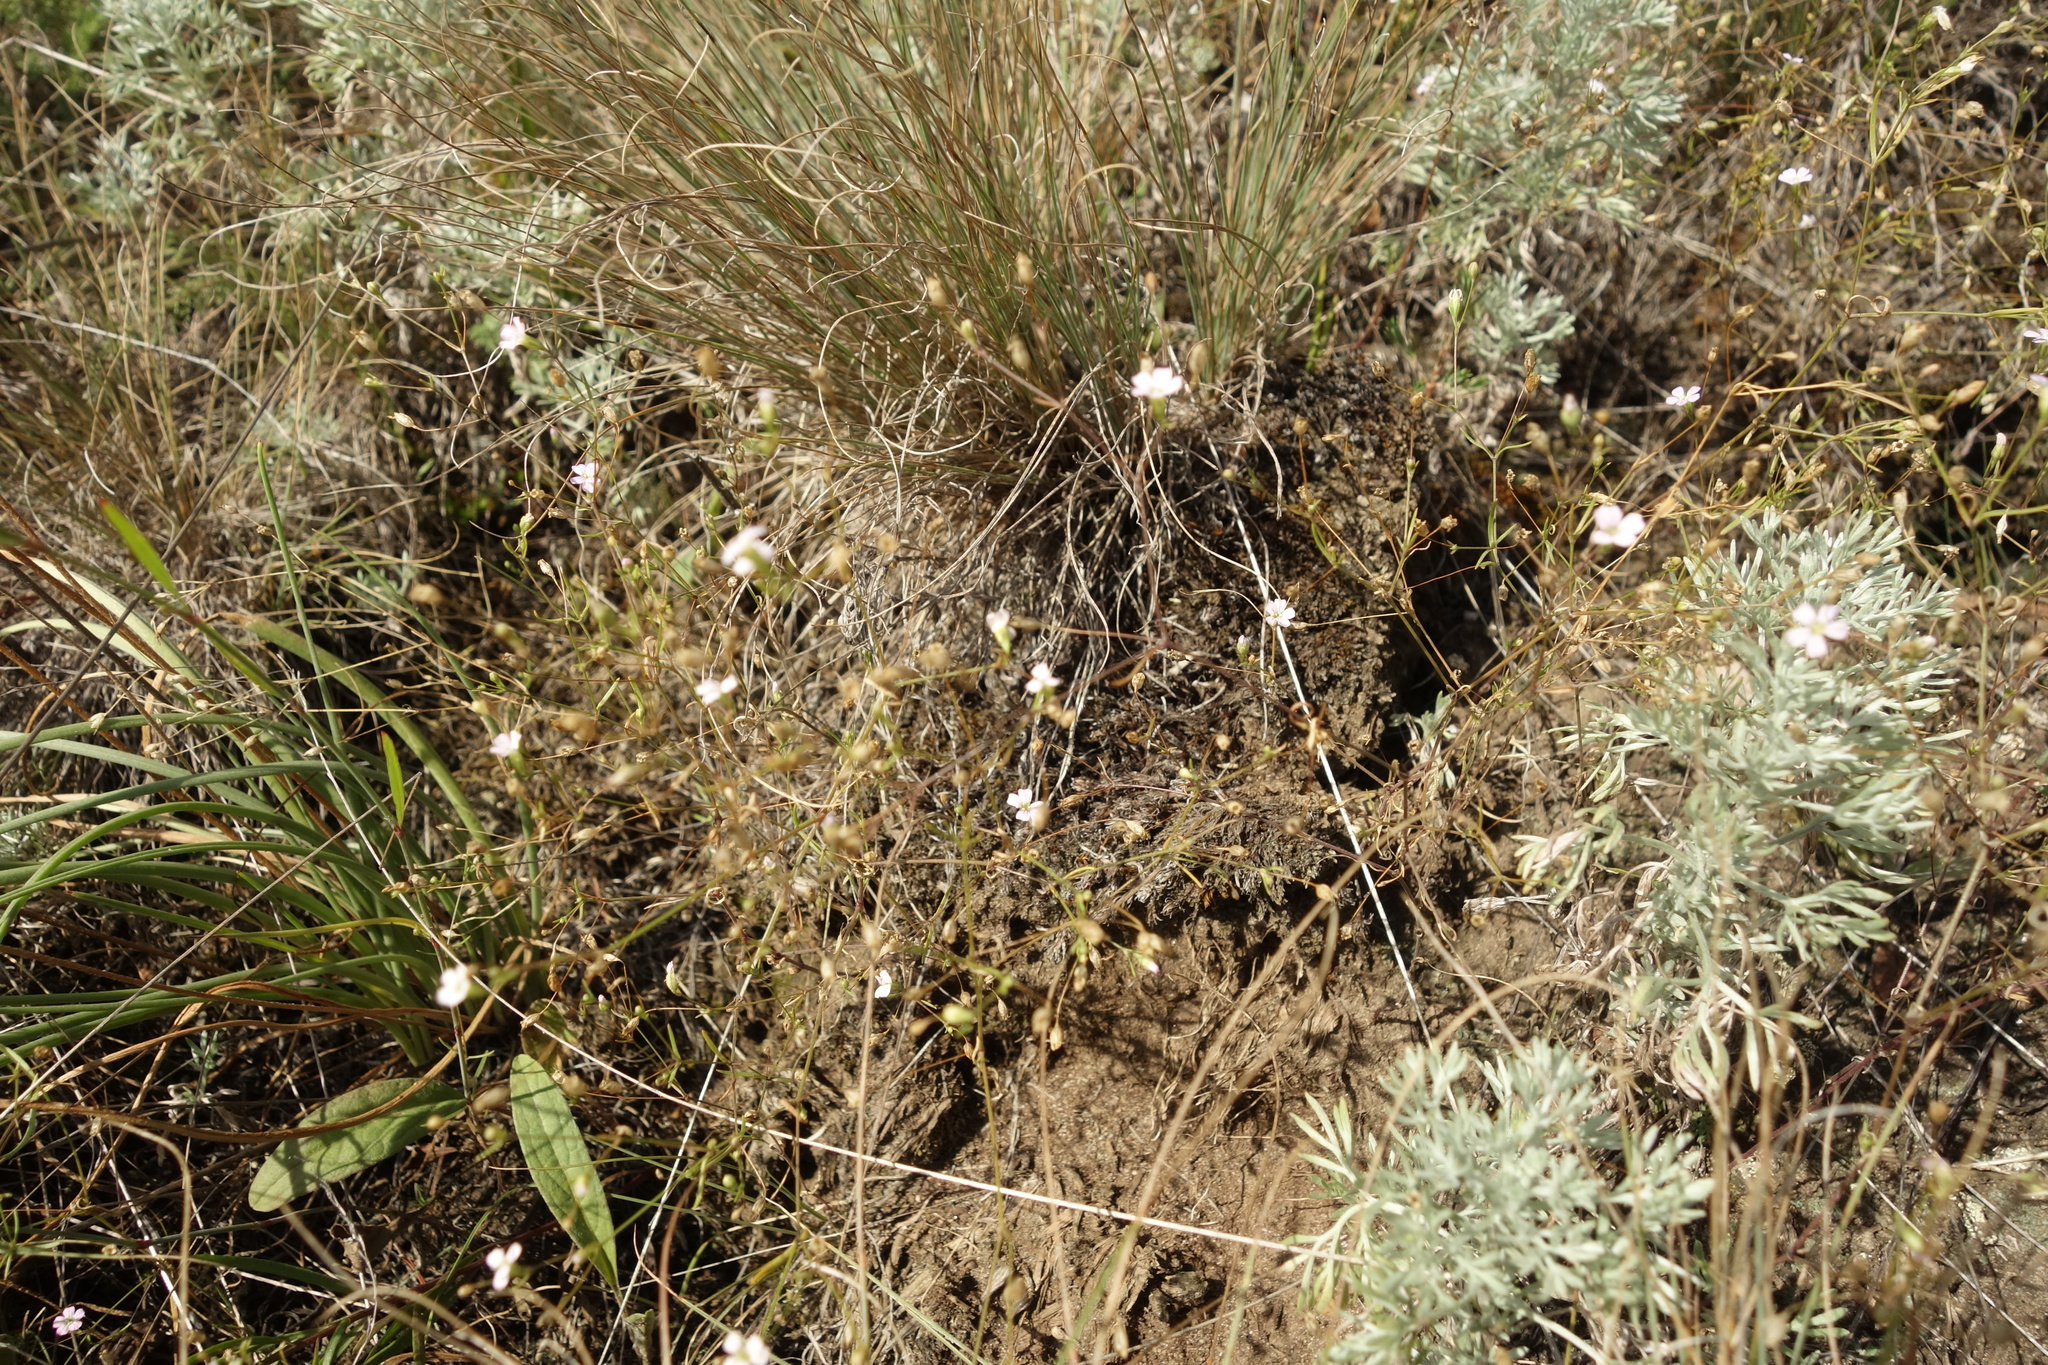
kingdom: Plantae
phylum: Tracheophyta
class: Magnoliopsida
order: Caryophyllales
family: Caryophyllaceae
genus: Psammophiliella
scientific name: Psammophiliella muralis
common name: Cushion baby's-breath
